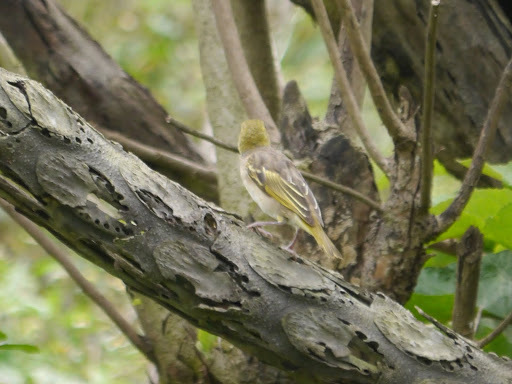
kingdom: Animalia
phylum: Chordata
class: Aves
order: Passeriformes
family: Ploceidae
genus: Ploceus
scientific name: Ploceus cucullatus
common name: Village weaver
